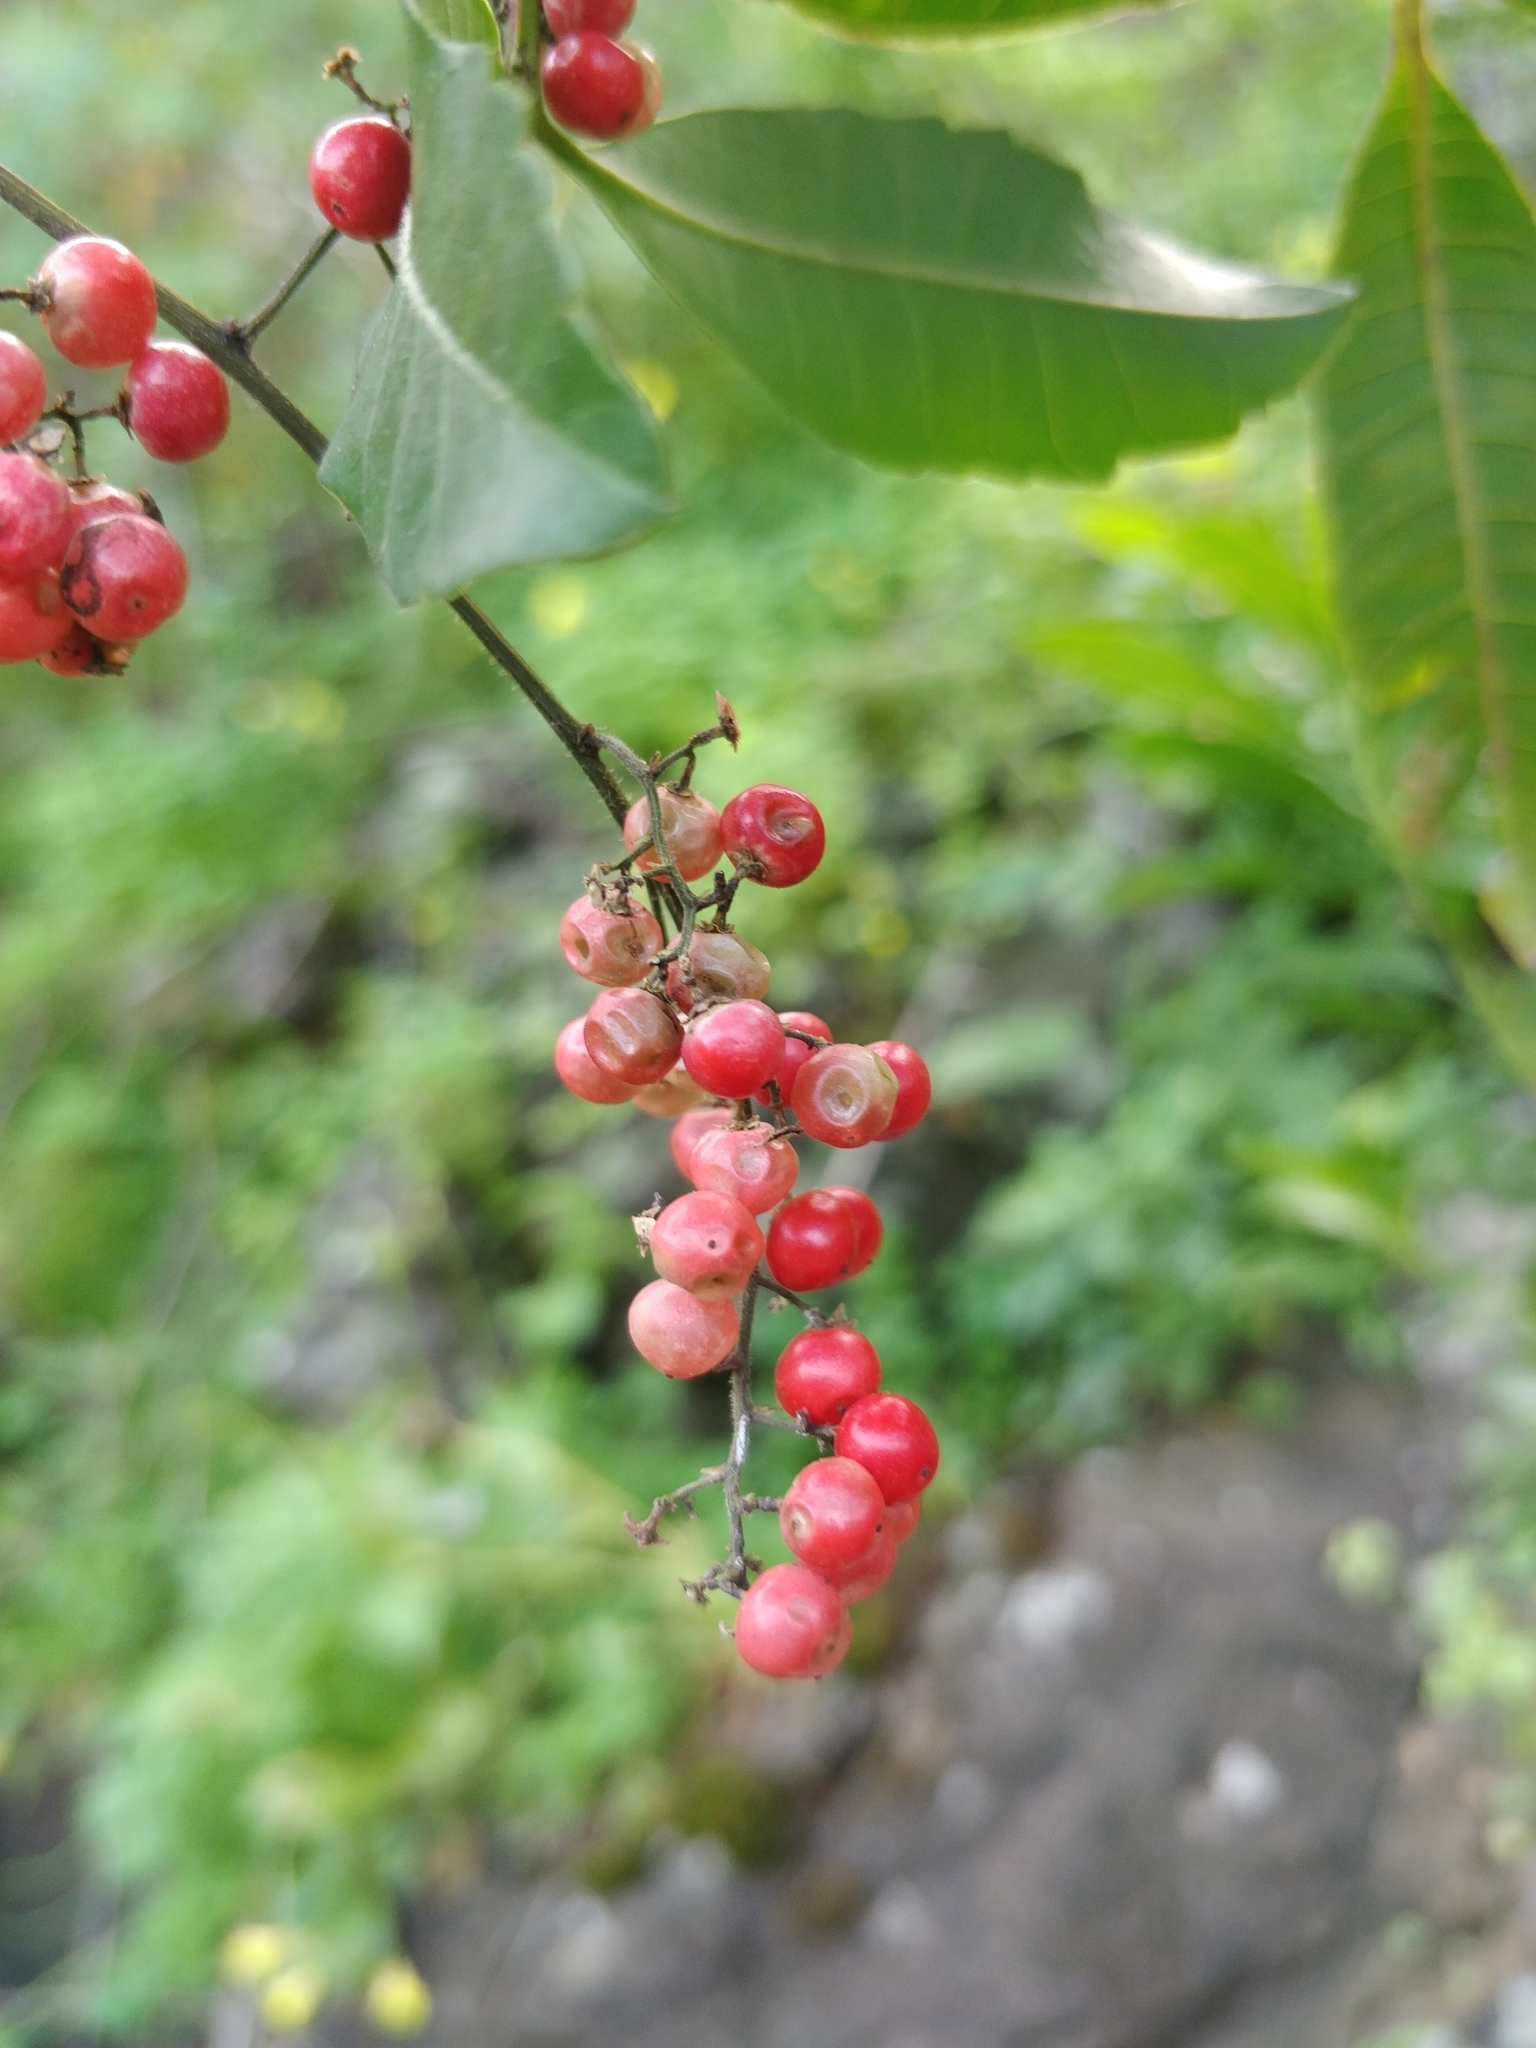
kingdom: Plantae
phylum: Tracheophyta
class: Magnoliopsida
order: Sapindales
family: Anacardiaceae
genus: Schinus
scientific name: Schinus terebinthifolia
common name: Brazilian peppertree
